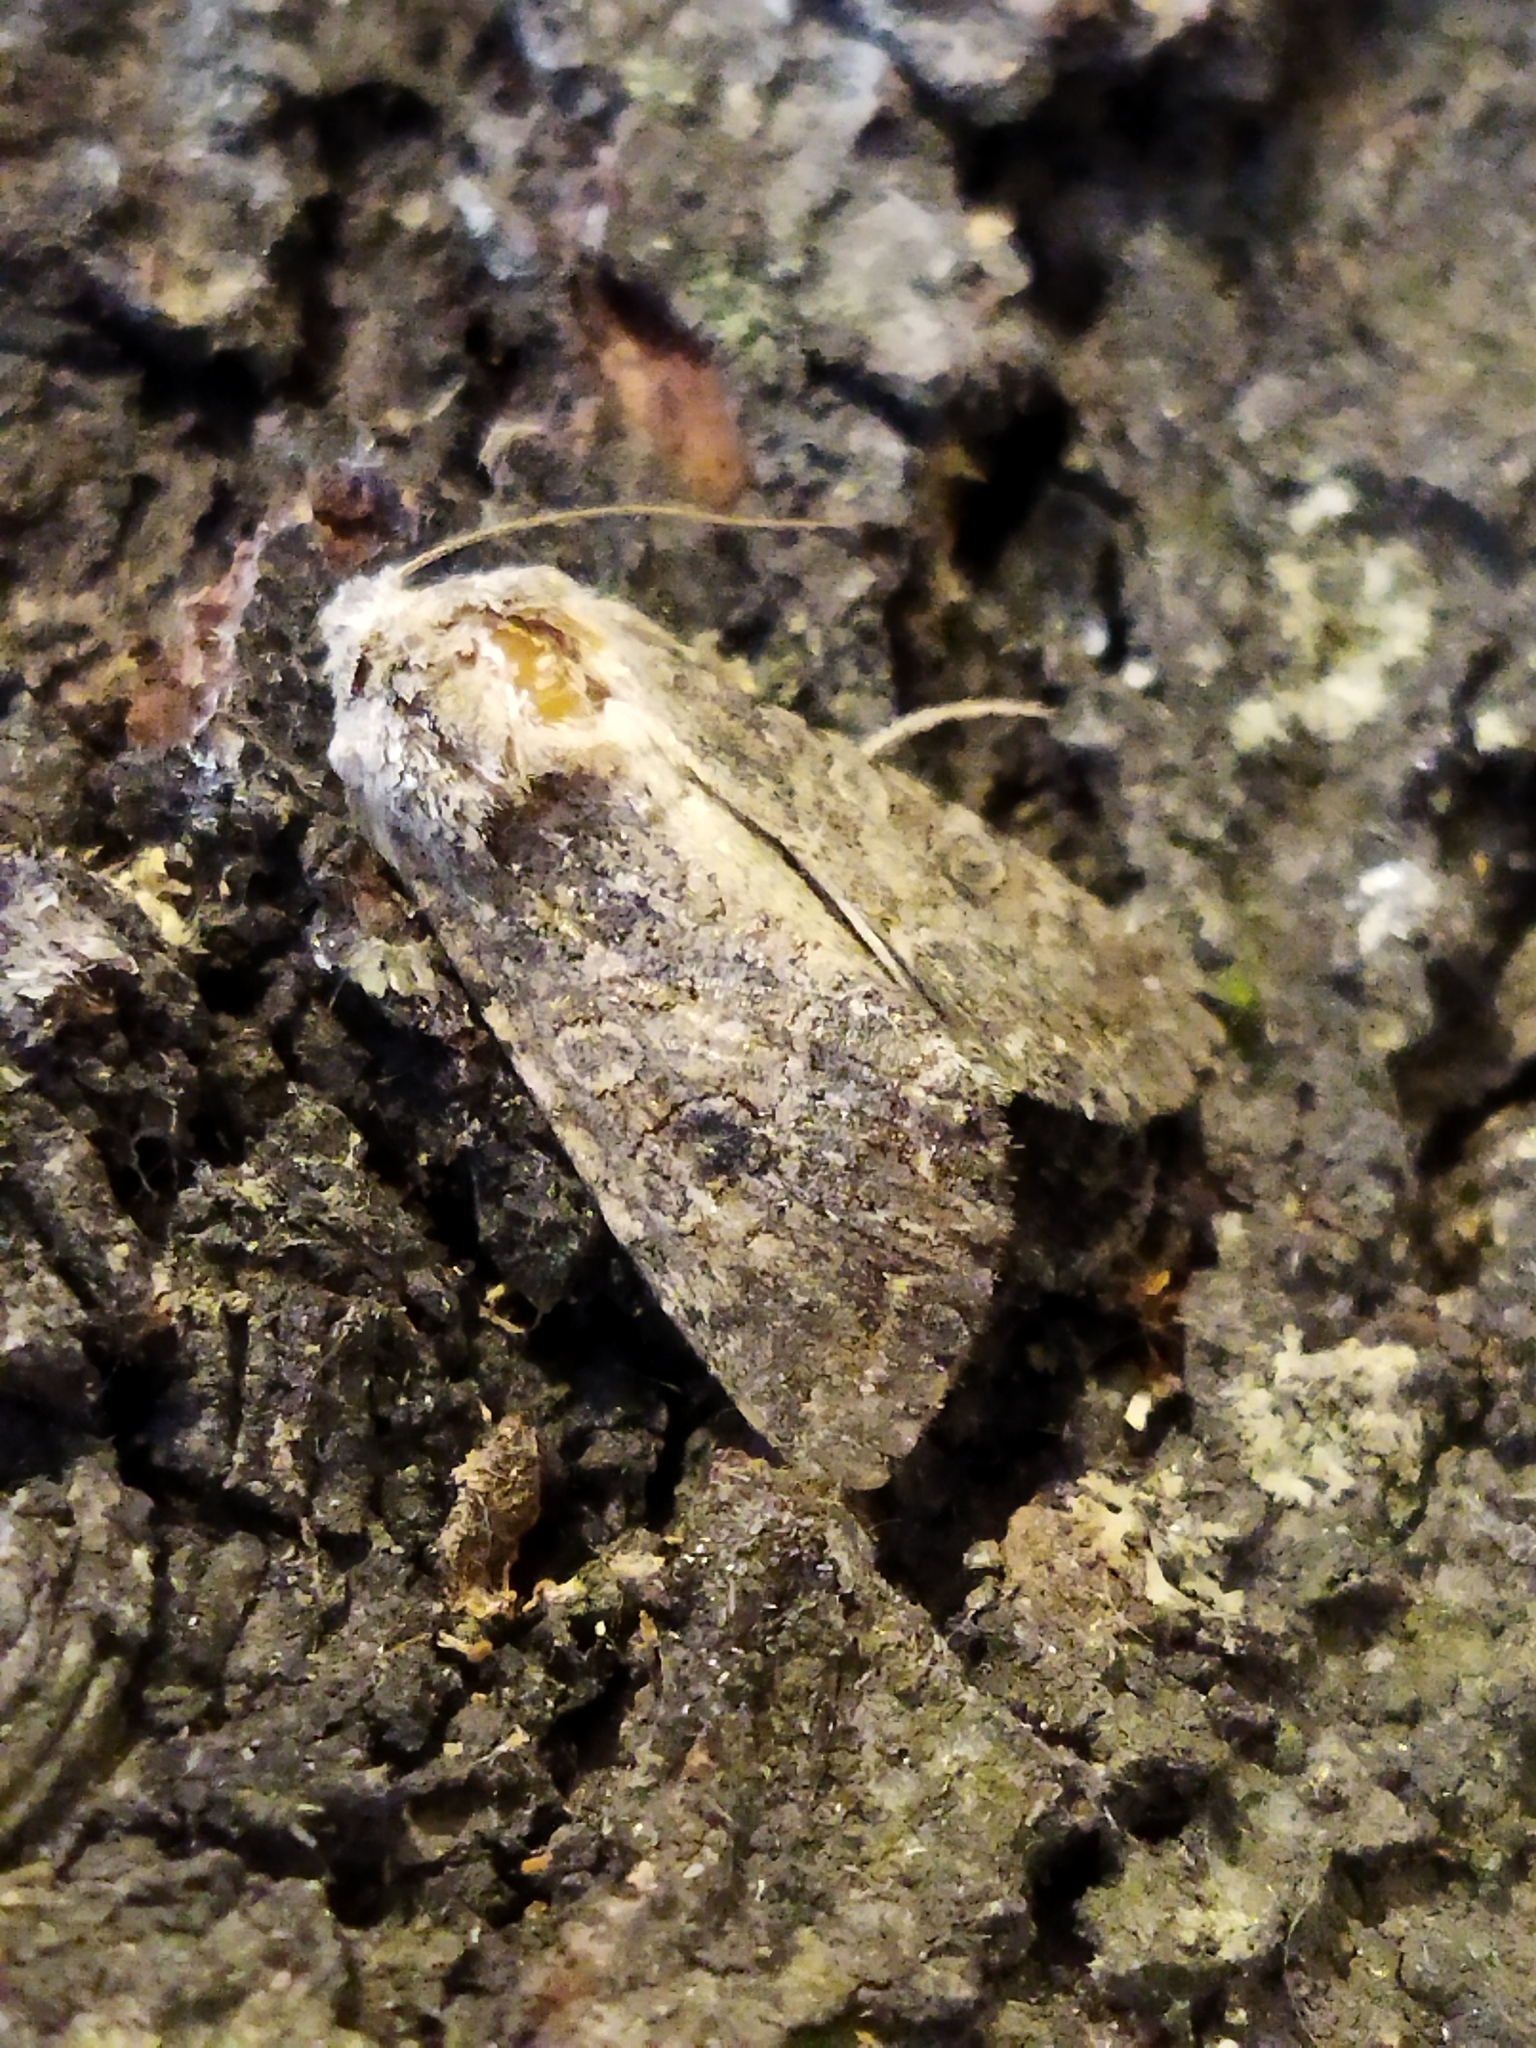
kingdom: Animalia
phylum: Arthropoda
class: Insecta
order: Lepidoptera
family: Noctuidae
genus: Anarta
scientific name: Anarta trifolii
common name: Clover cutworm moth
